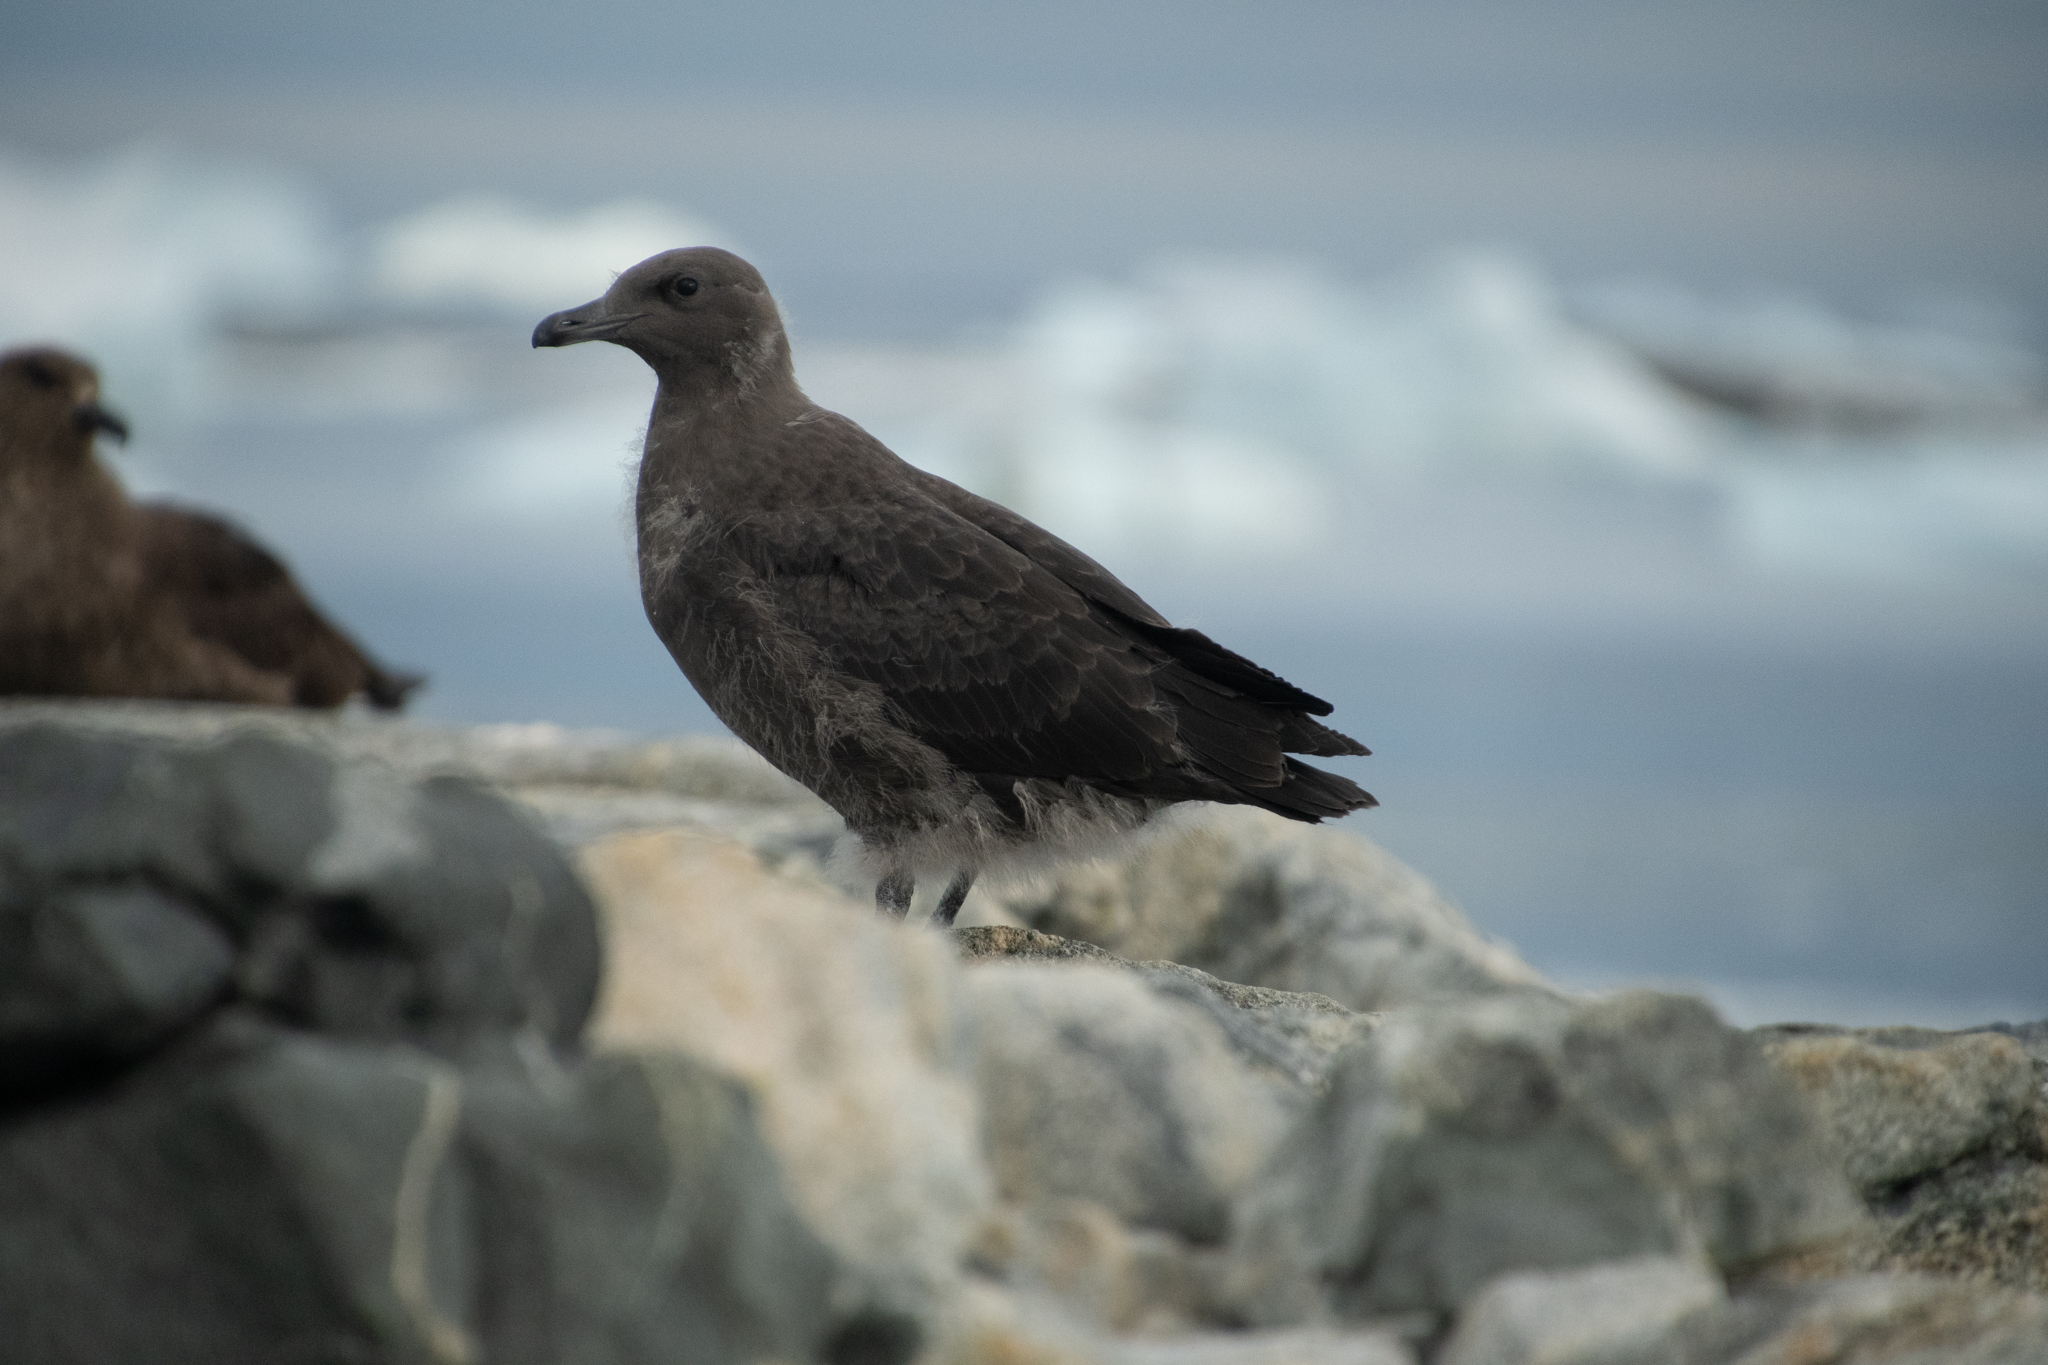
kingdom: Animalia
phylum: Chordata
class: Aves
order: Charadriiformes
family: Stercorariidae
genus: Stercorarius
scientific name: Stercorarius maccormicki
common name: South polar skua
